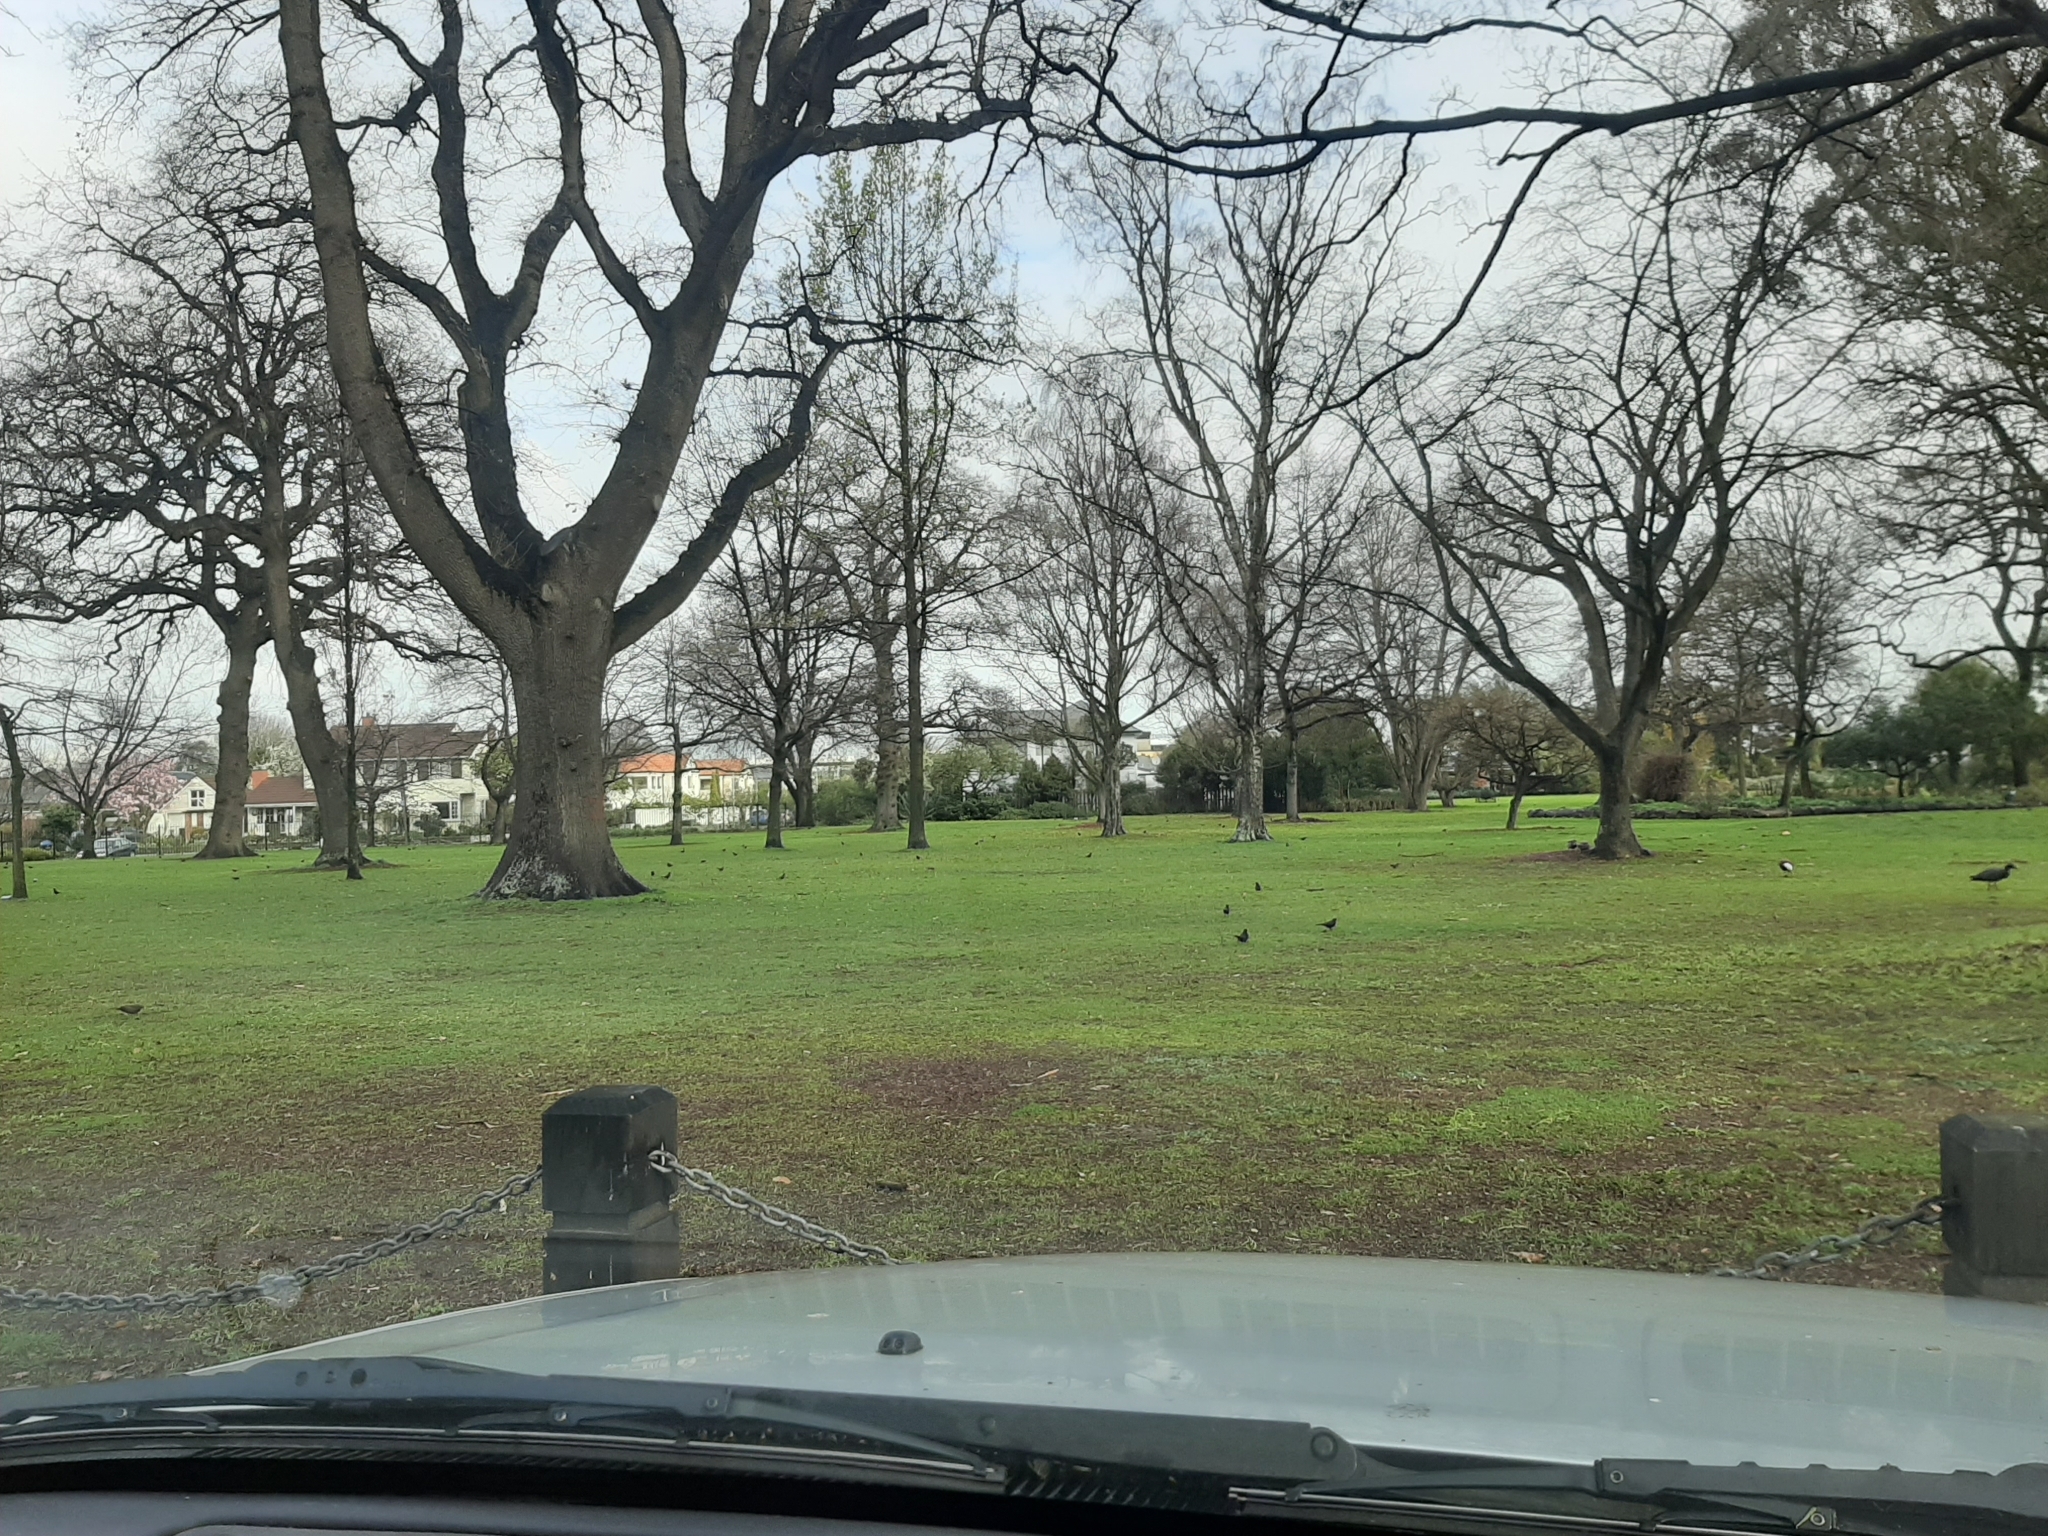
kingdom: Animalia
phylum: Chordata
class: Aves
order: Passeriformes
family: Turdidae
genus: Turdus
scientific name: Turdus merula
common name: Common blackbird
